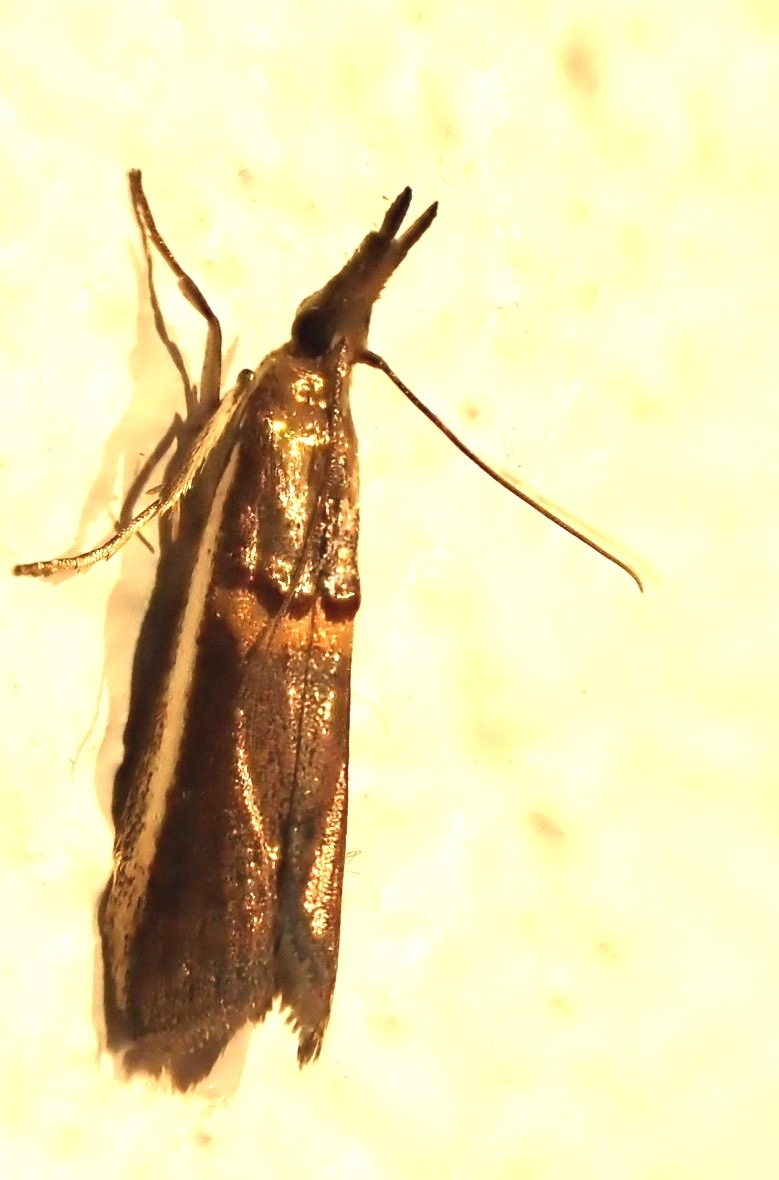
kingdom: Animalia
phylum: Arthropoda
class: Insecta
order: Lepidoptera
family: Pyralidae
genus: Etiella
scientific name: Etiella zinckenella
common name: Gold-banded etiella moth
